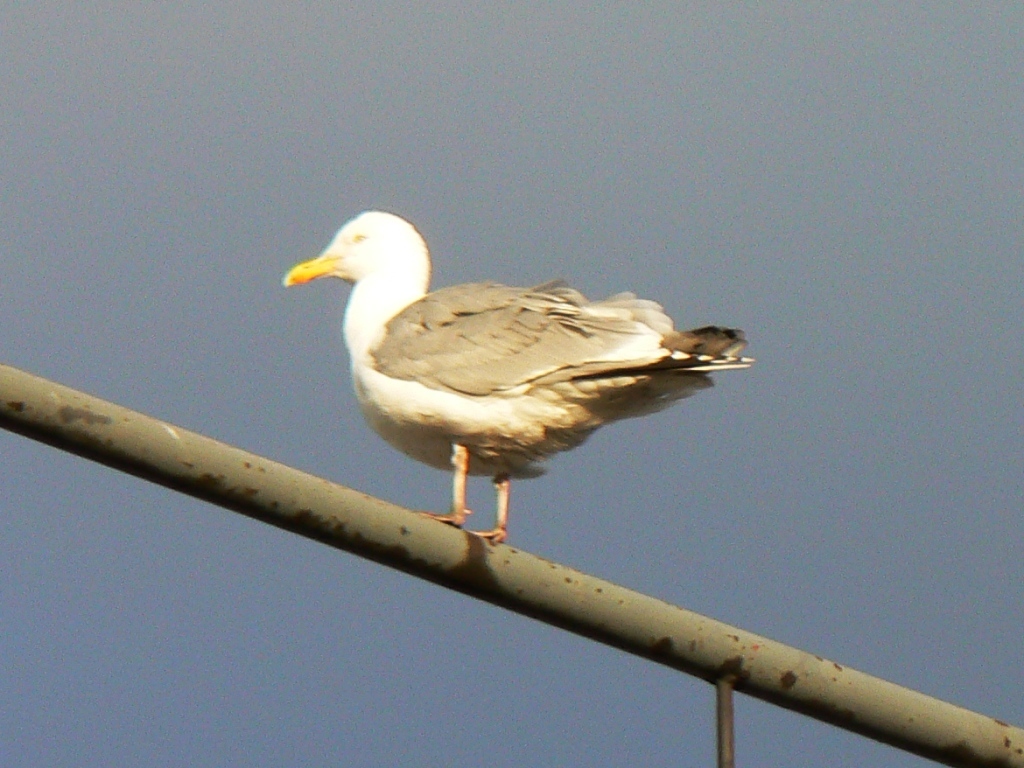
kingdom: Animalia
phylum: Chordata
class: Aves
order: Charadriiformes
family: Laridae
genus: Larus
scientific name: Larus argentatus
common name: Herring gull
